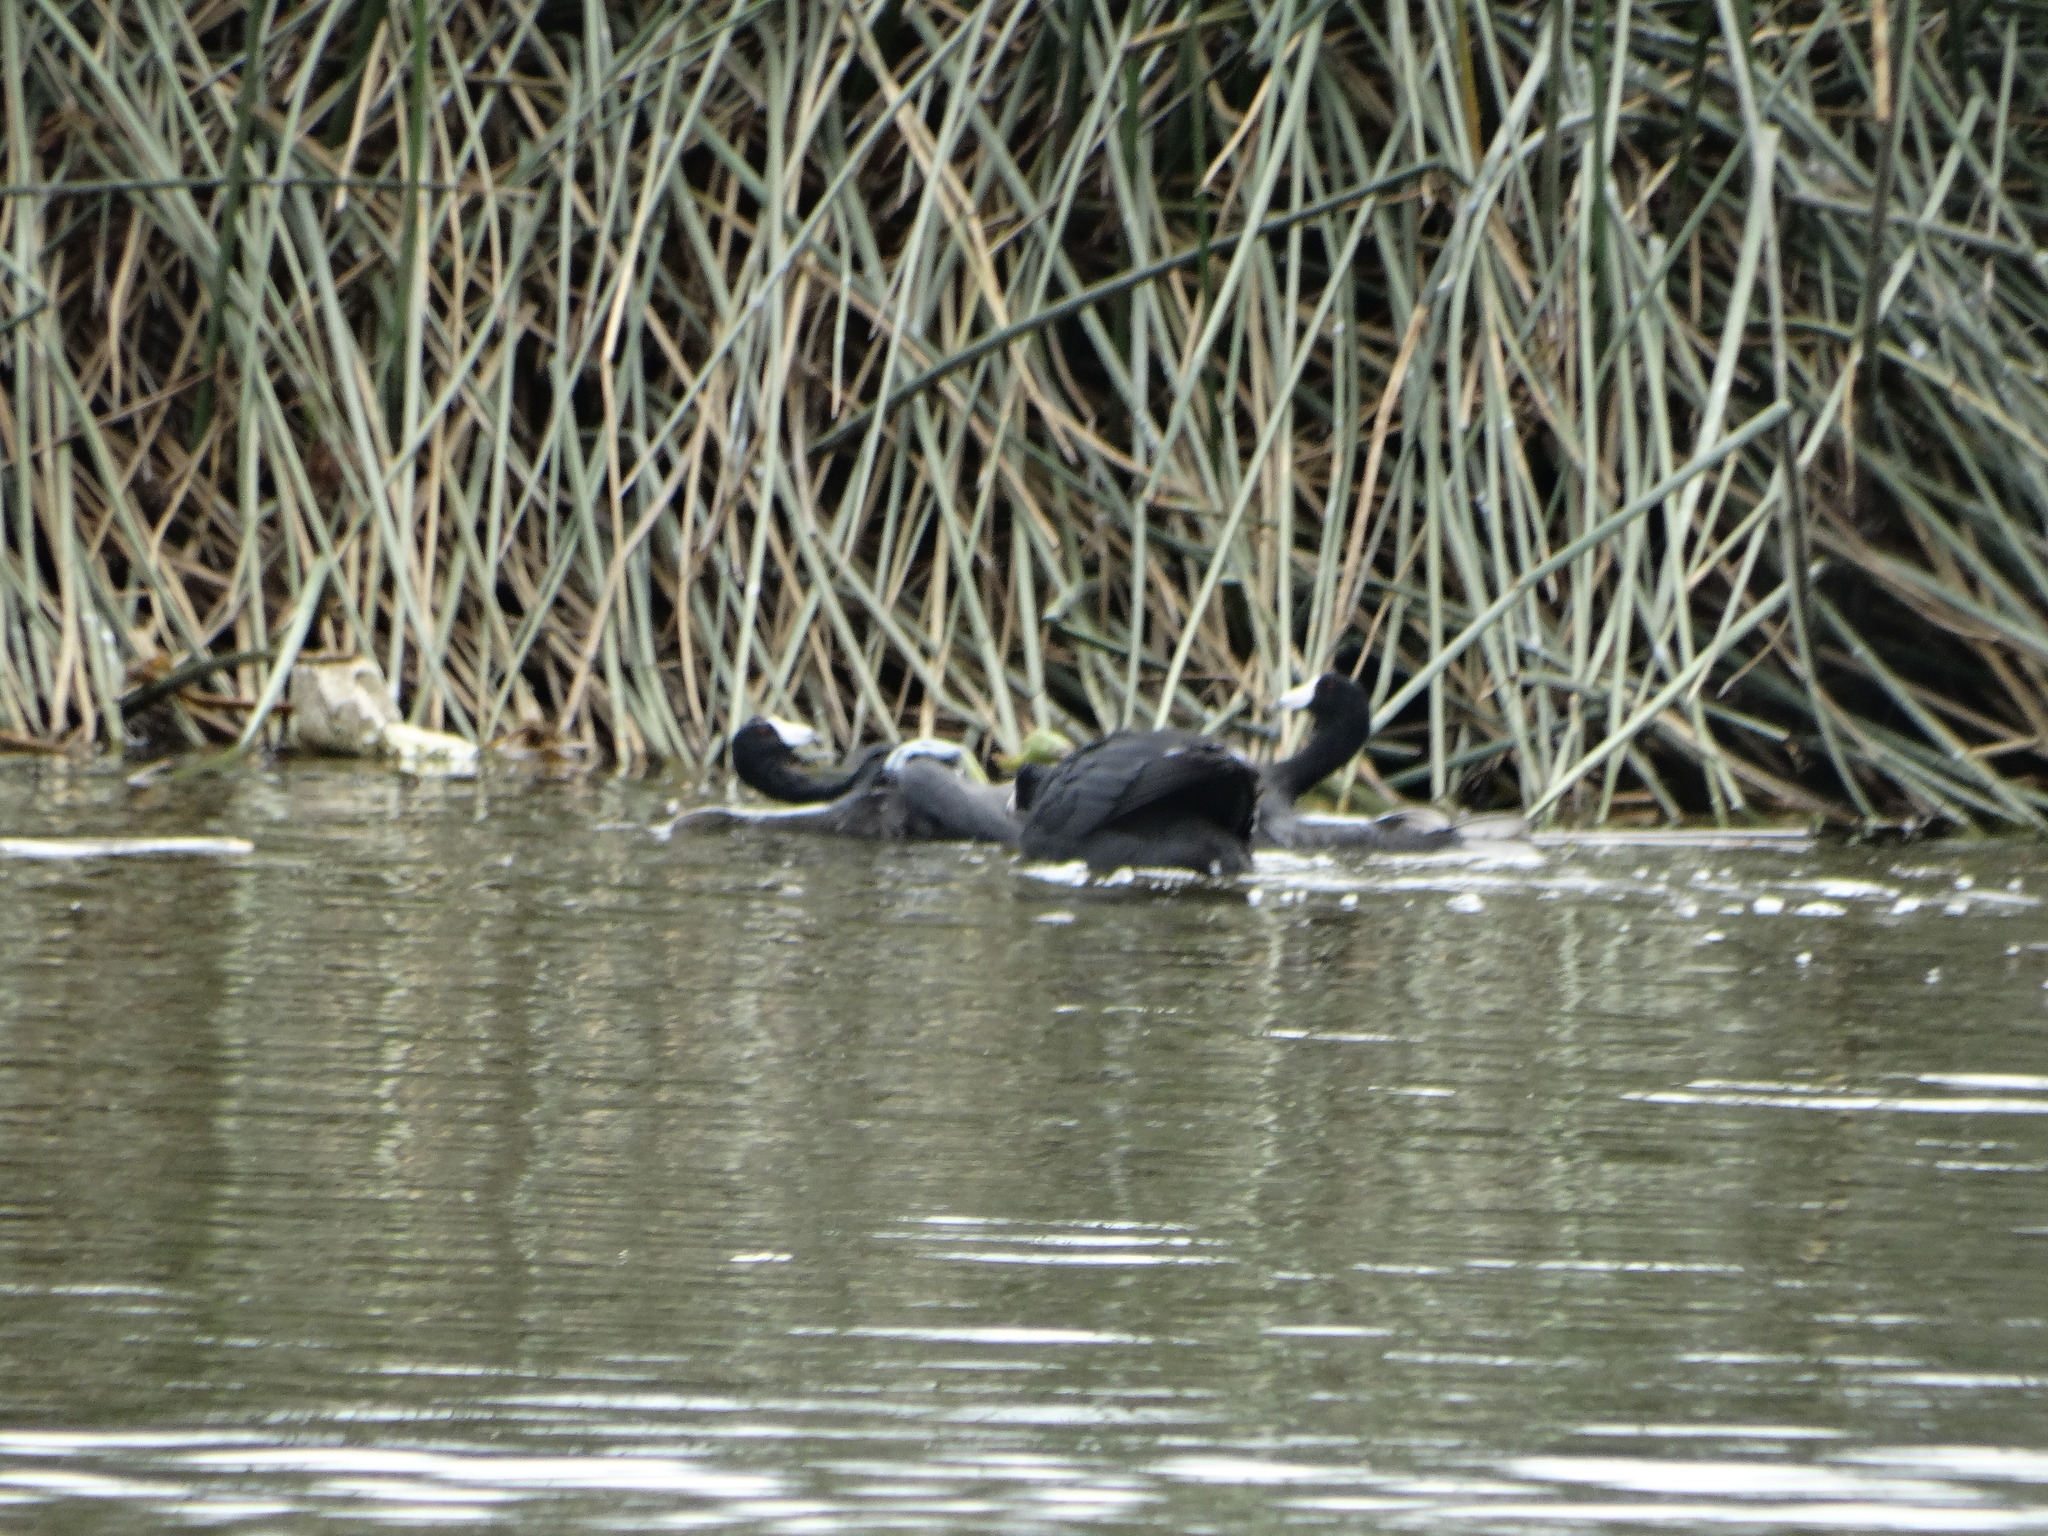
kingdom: Animalia
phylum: Chordata
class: Aves
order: Gruiformes
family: Rallidae
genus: Fulica
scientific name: Fulica americana
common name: American coot
